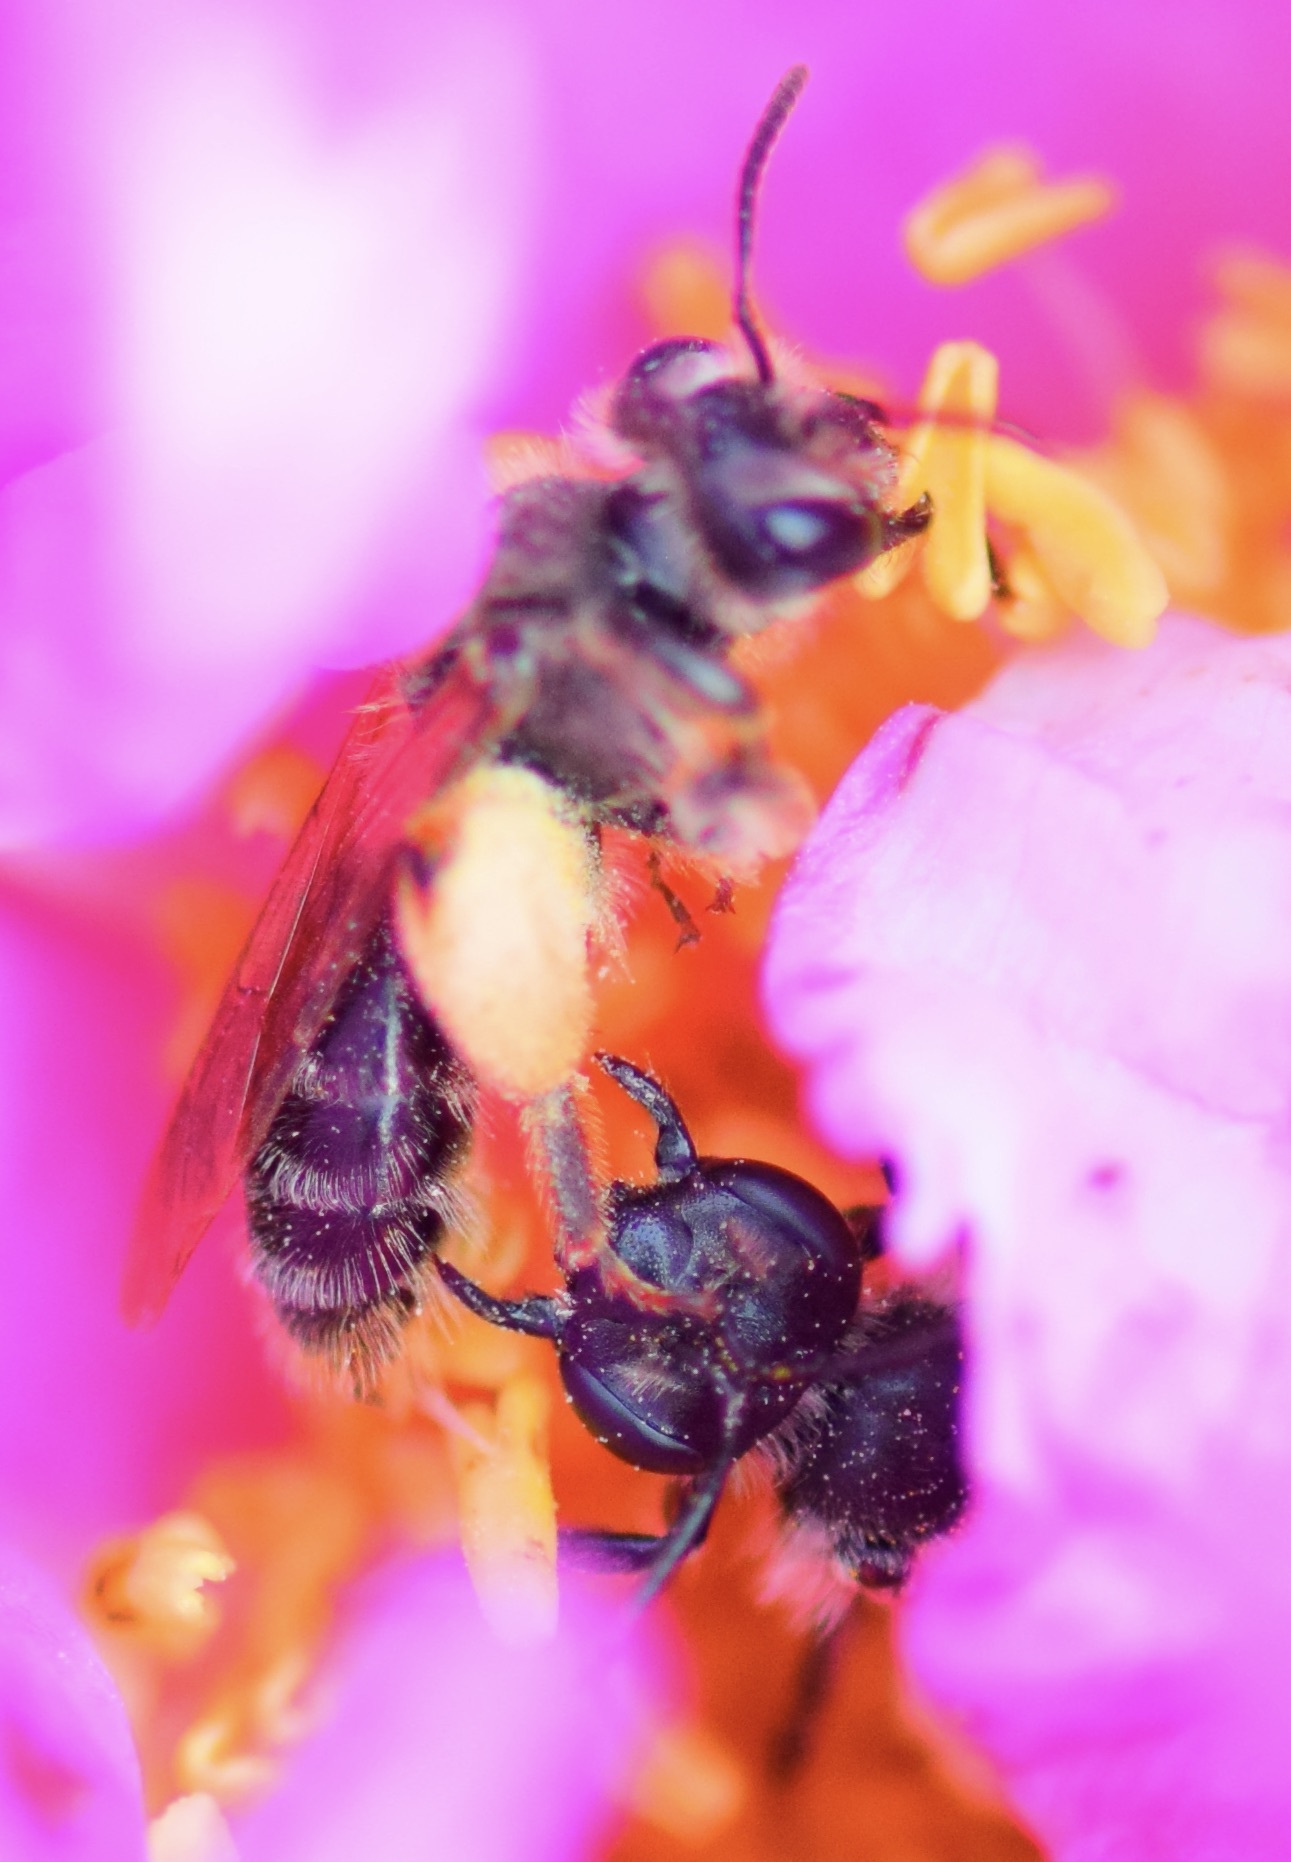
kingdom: Animalia
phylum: Arthropoda
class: Insecta
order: Hymenoptera
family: Andrenidae
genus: Andrena
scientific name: Andrena thaspii
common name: Parsnip miner bee
